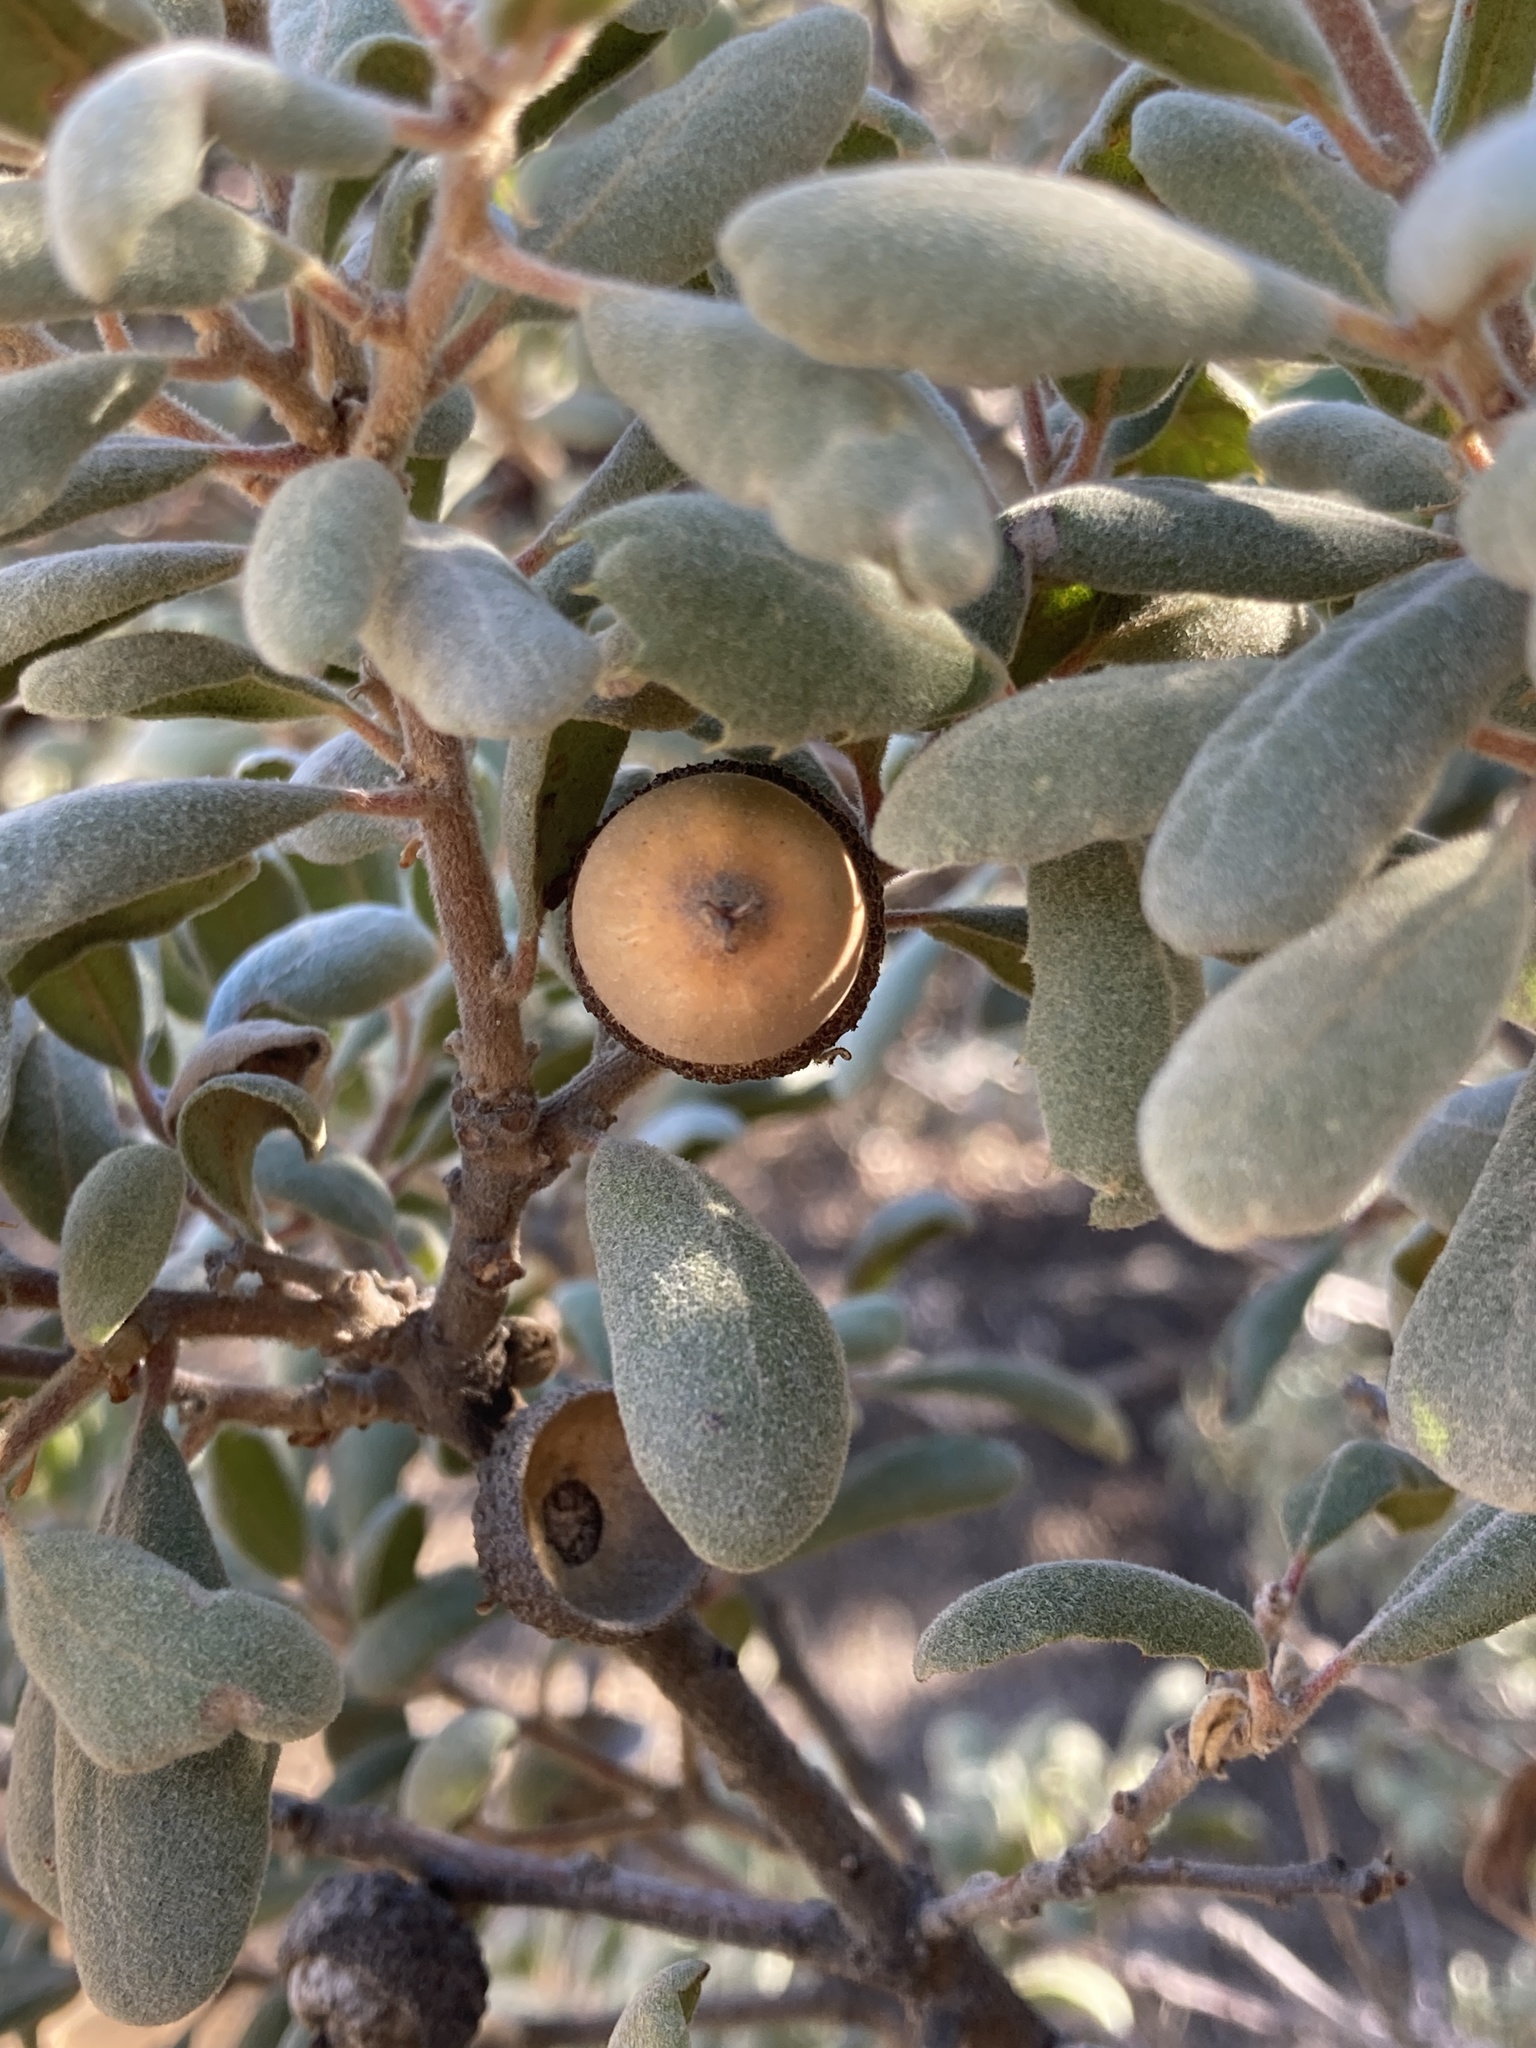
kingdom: Plantae
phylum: Tracheophyta
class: Magnoliopsida
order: Fagales
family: Fagaceae
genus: Quercus
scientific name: Quercus durata
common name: Leather oak
